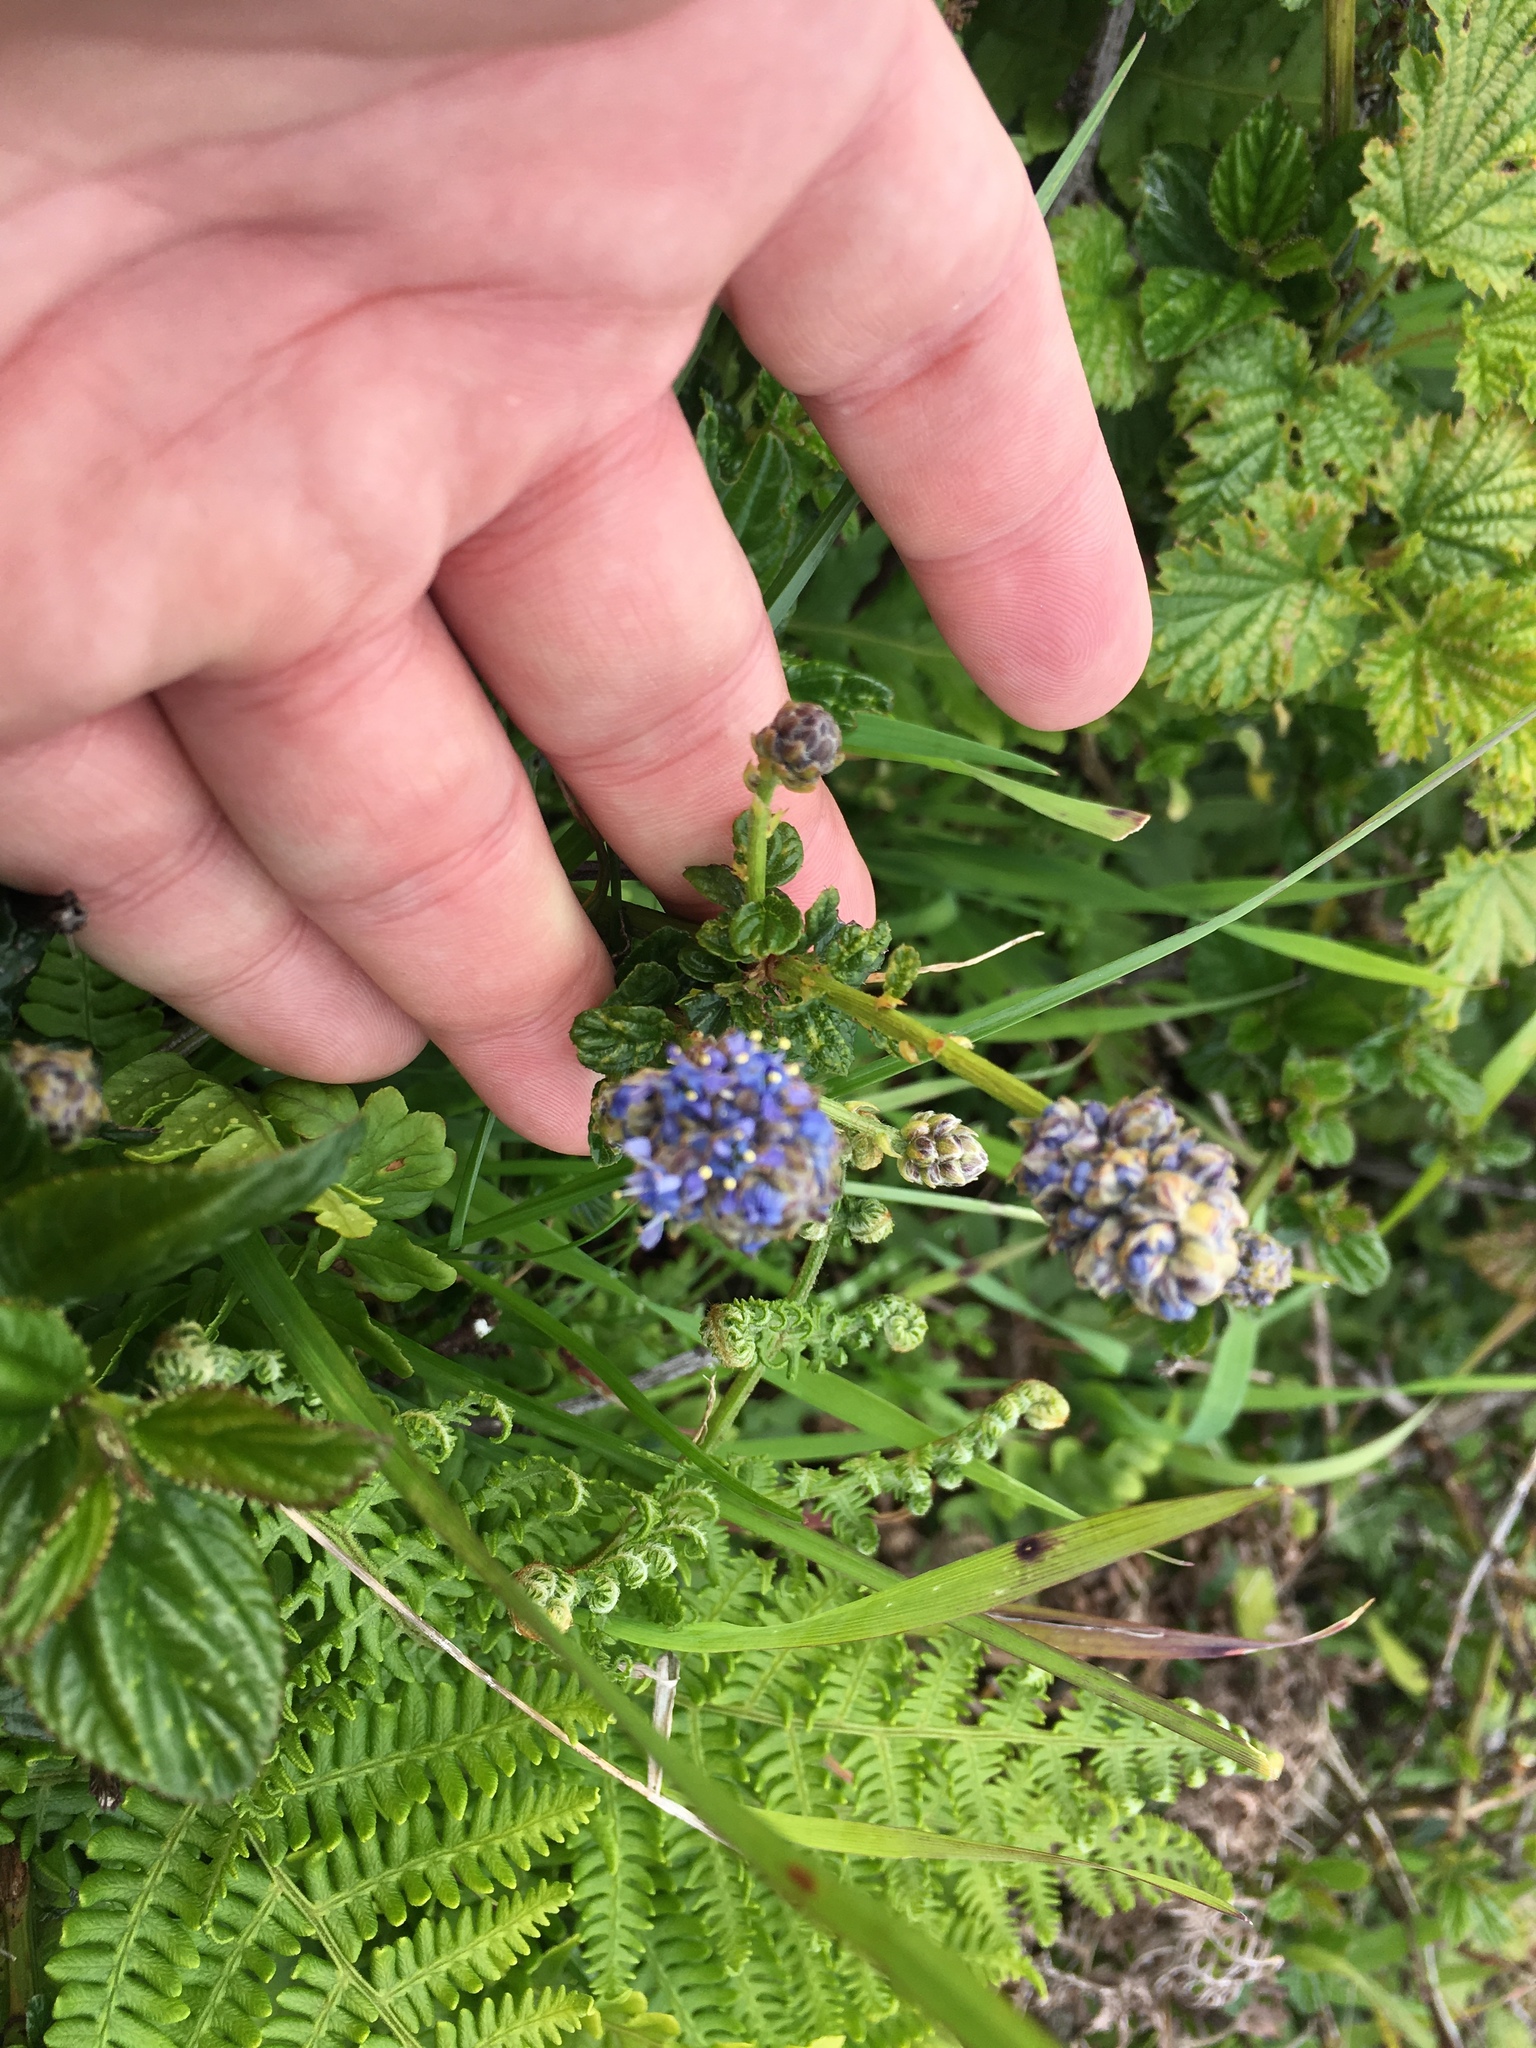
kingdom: Plantae
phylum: Tracheophyta
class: Magnoliopsida
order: Rosales
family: Rhamnaceae
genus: Ceanothus
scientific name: Ceanothus thyrsiflorus
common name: California-lilac
